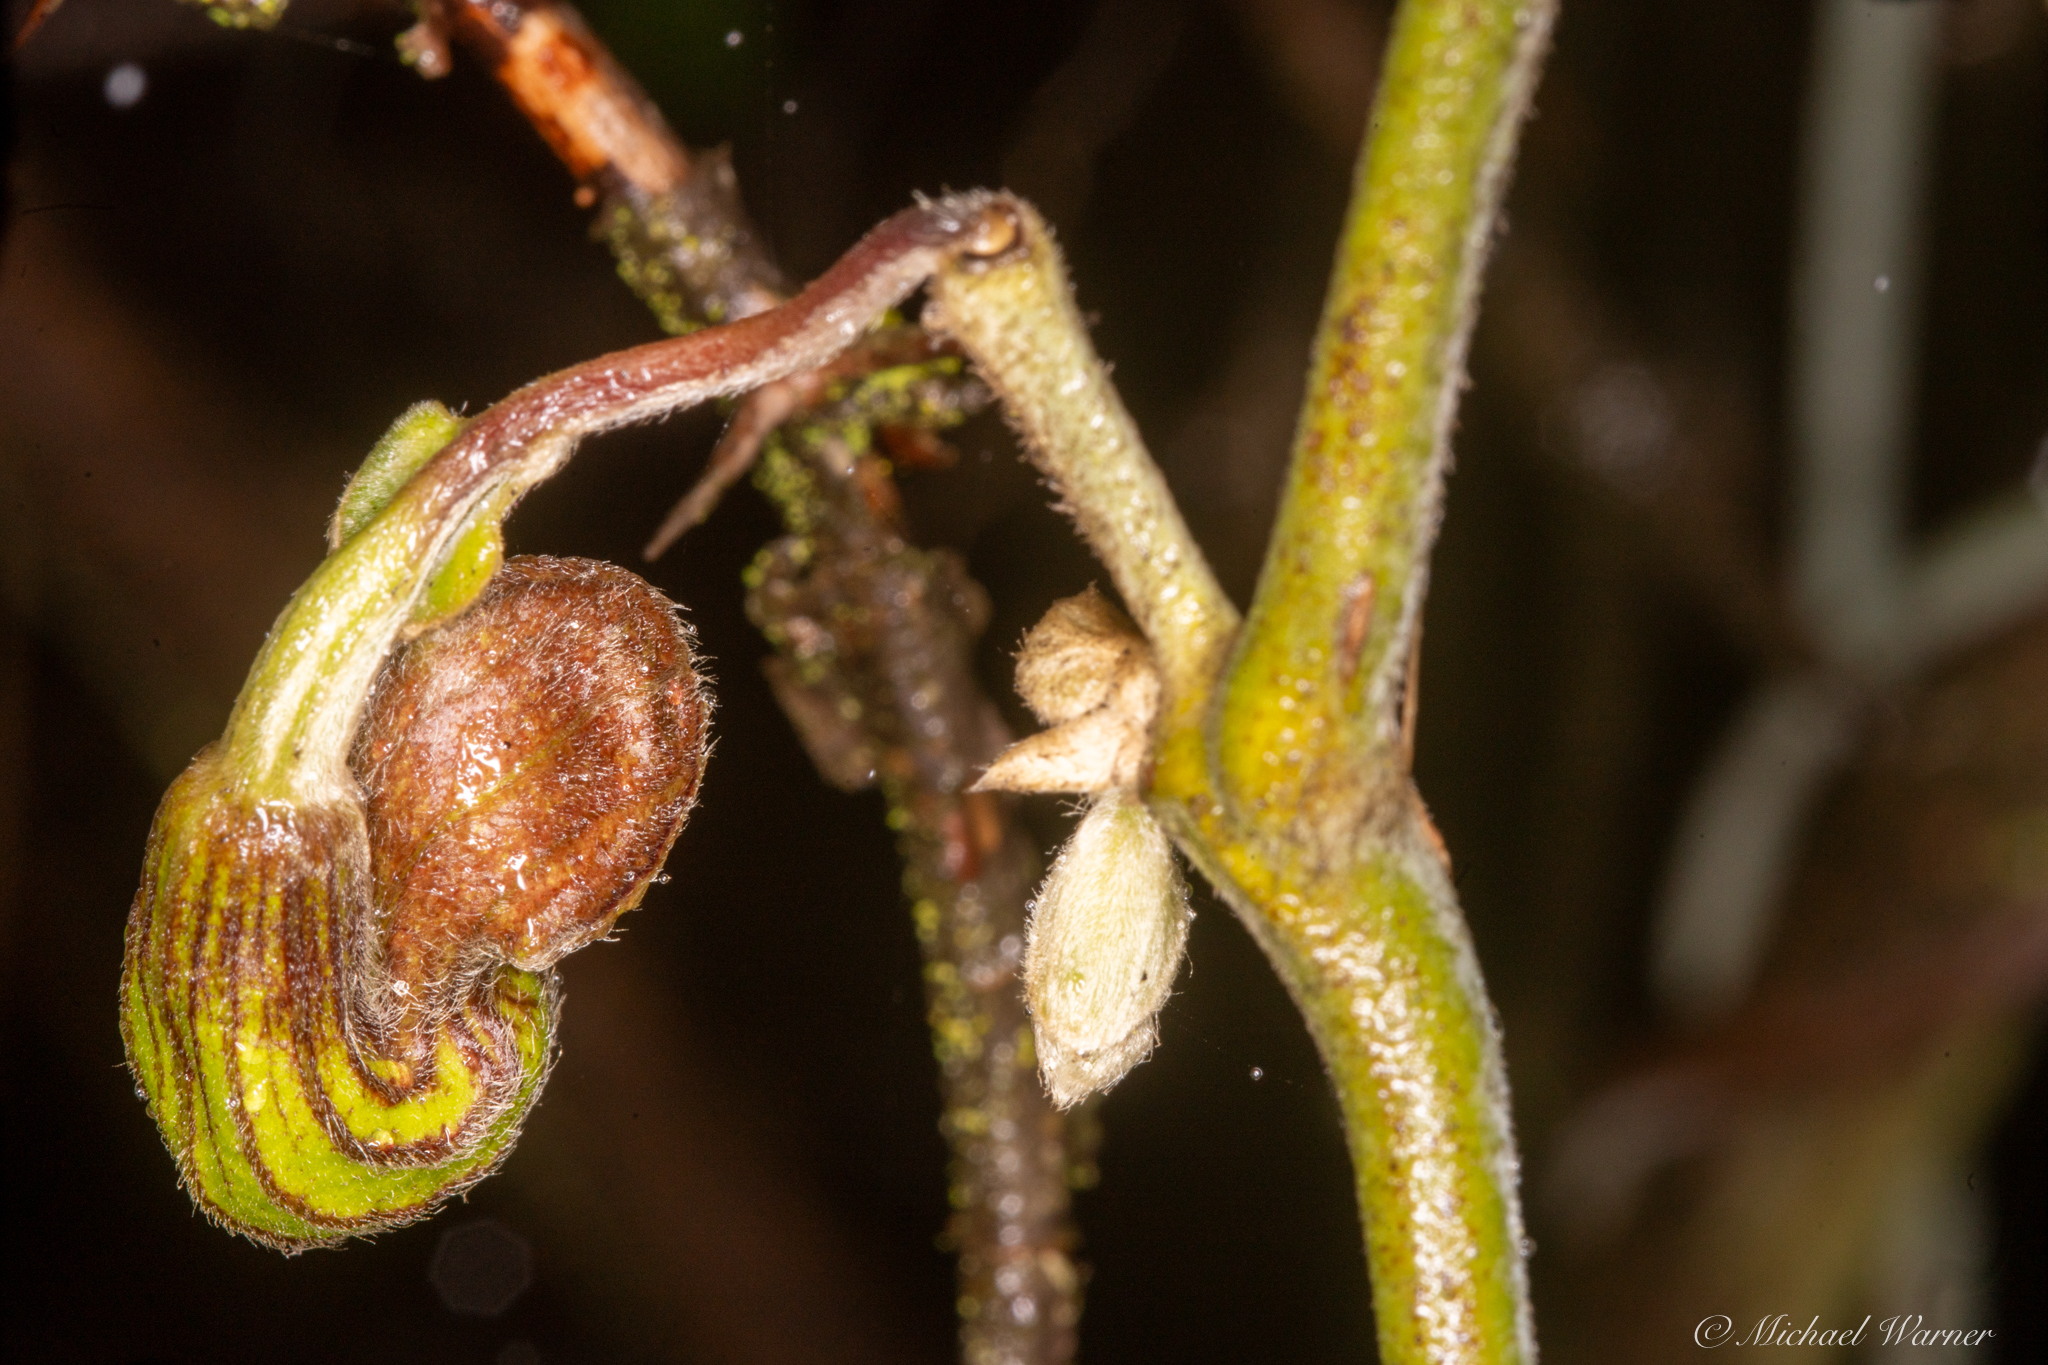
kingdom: Plantae
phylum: Tracheophyta
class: Magnoliopsida
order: Piperales
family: Aristolochiaceae
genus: Isotrema
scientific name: Isotrema californicum
